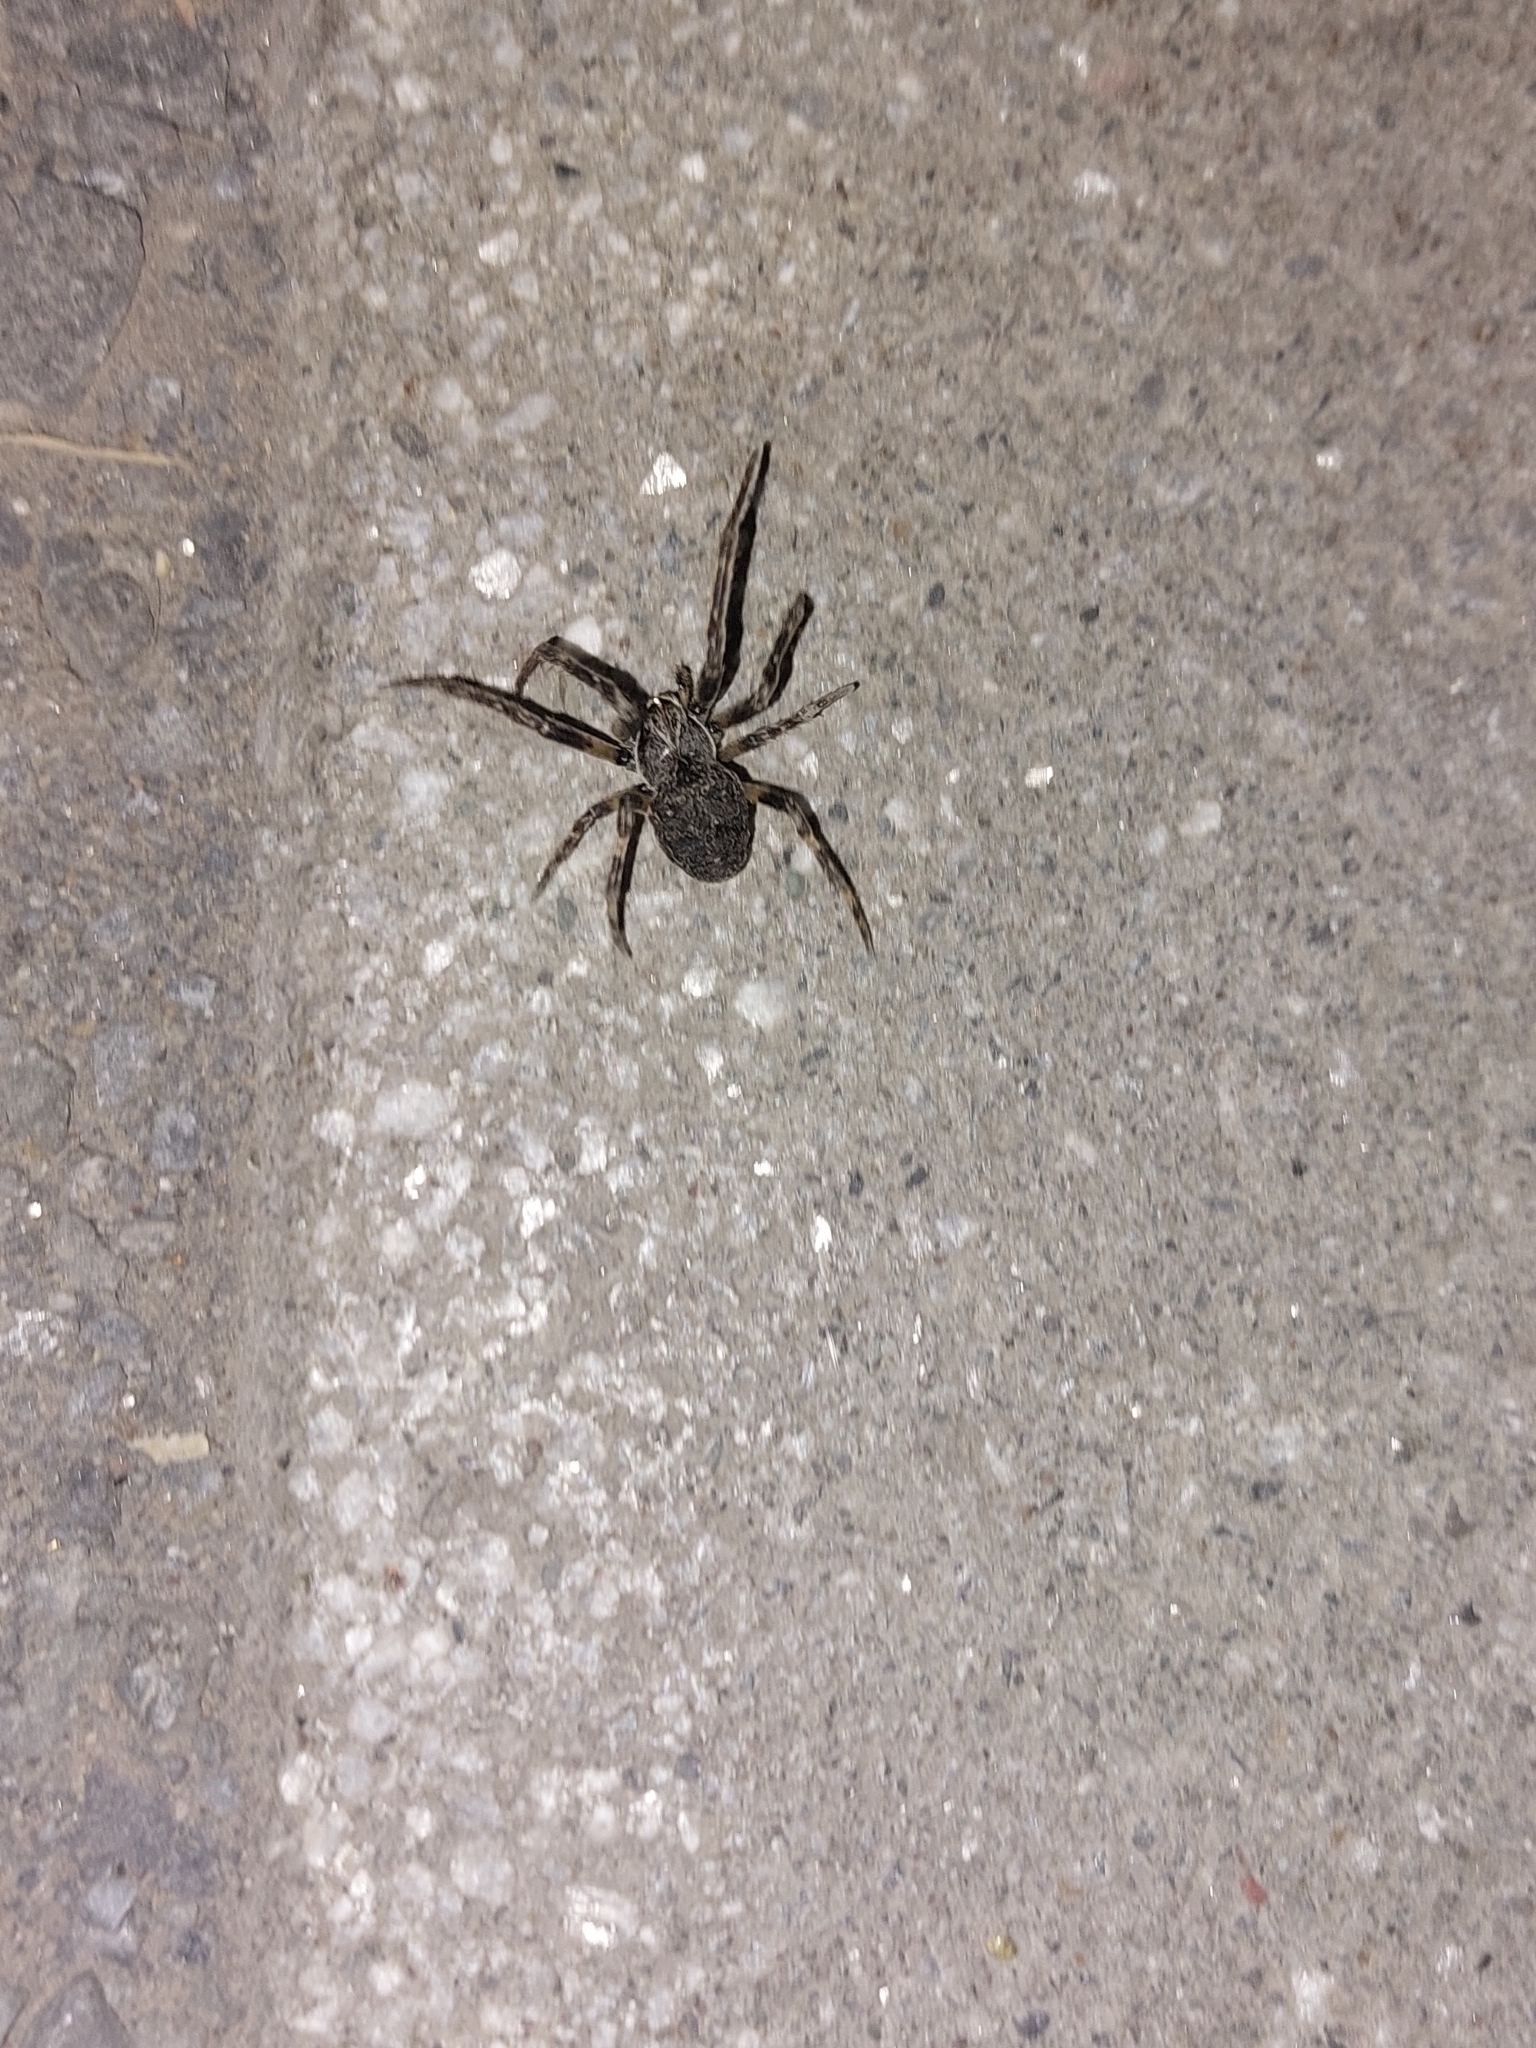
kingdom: Animalia
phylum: Arthropoda
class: Arachnida
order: Araneae
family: Araneidae
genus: Larinioides
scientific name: Larinioides sclopetarius
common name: Bridge orbweaver
